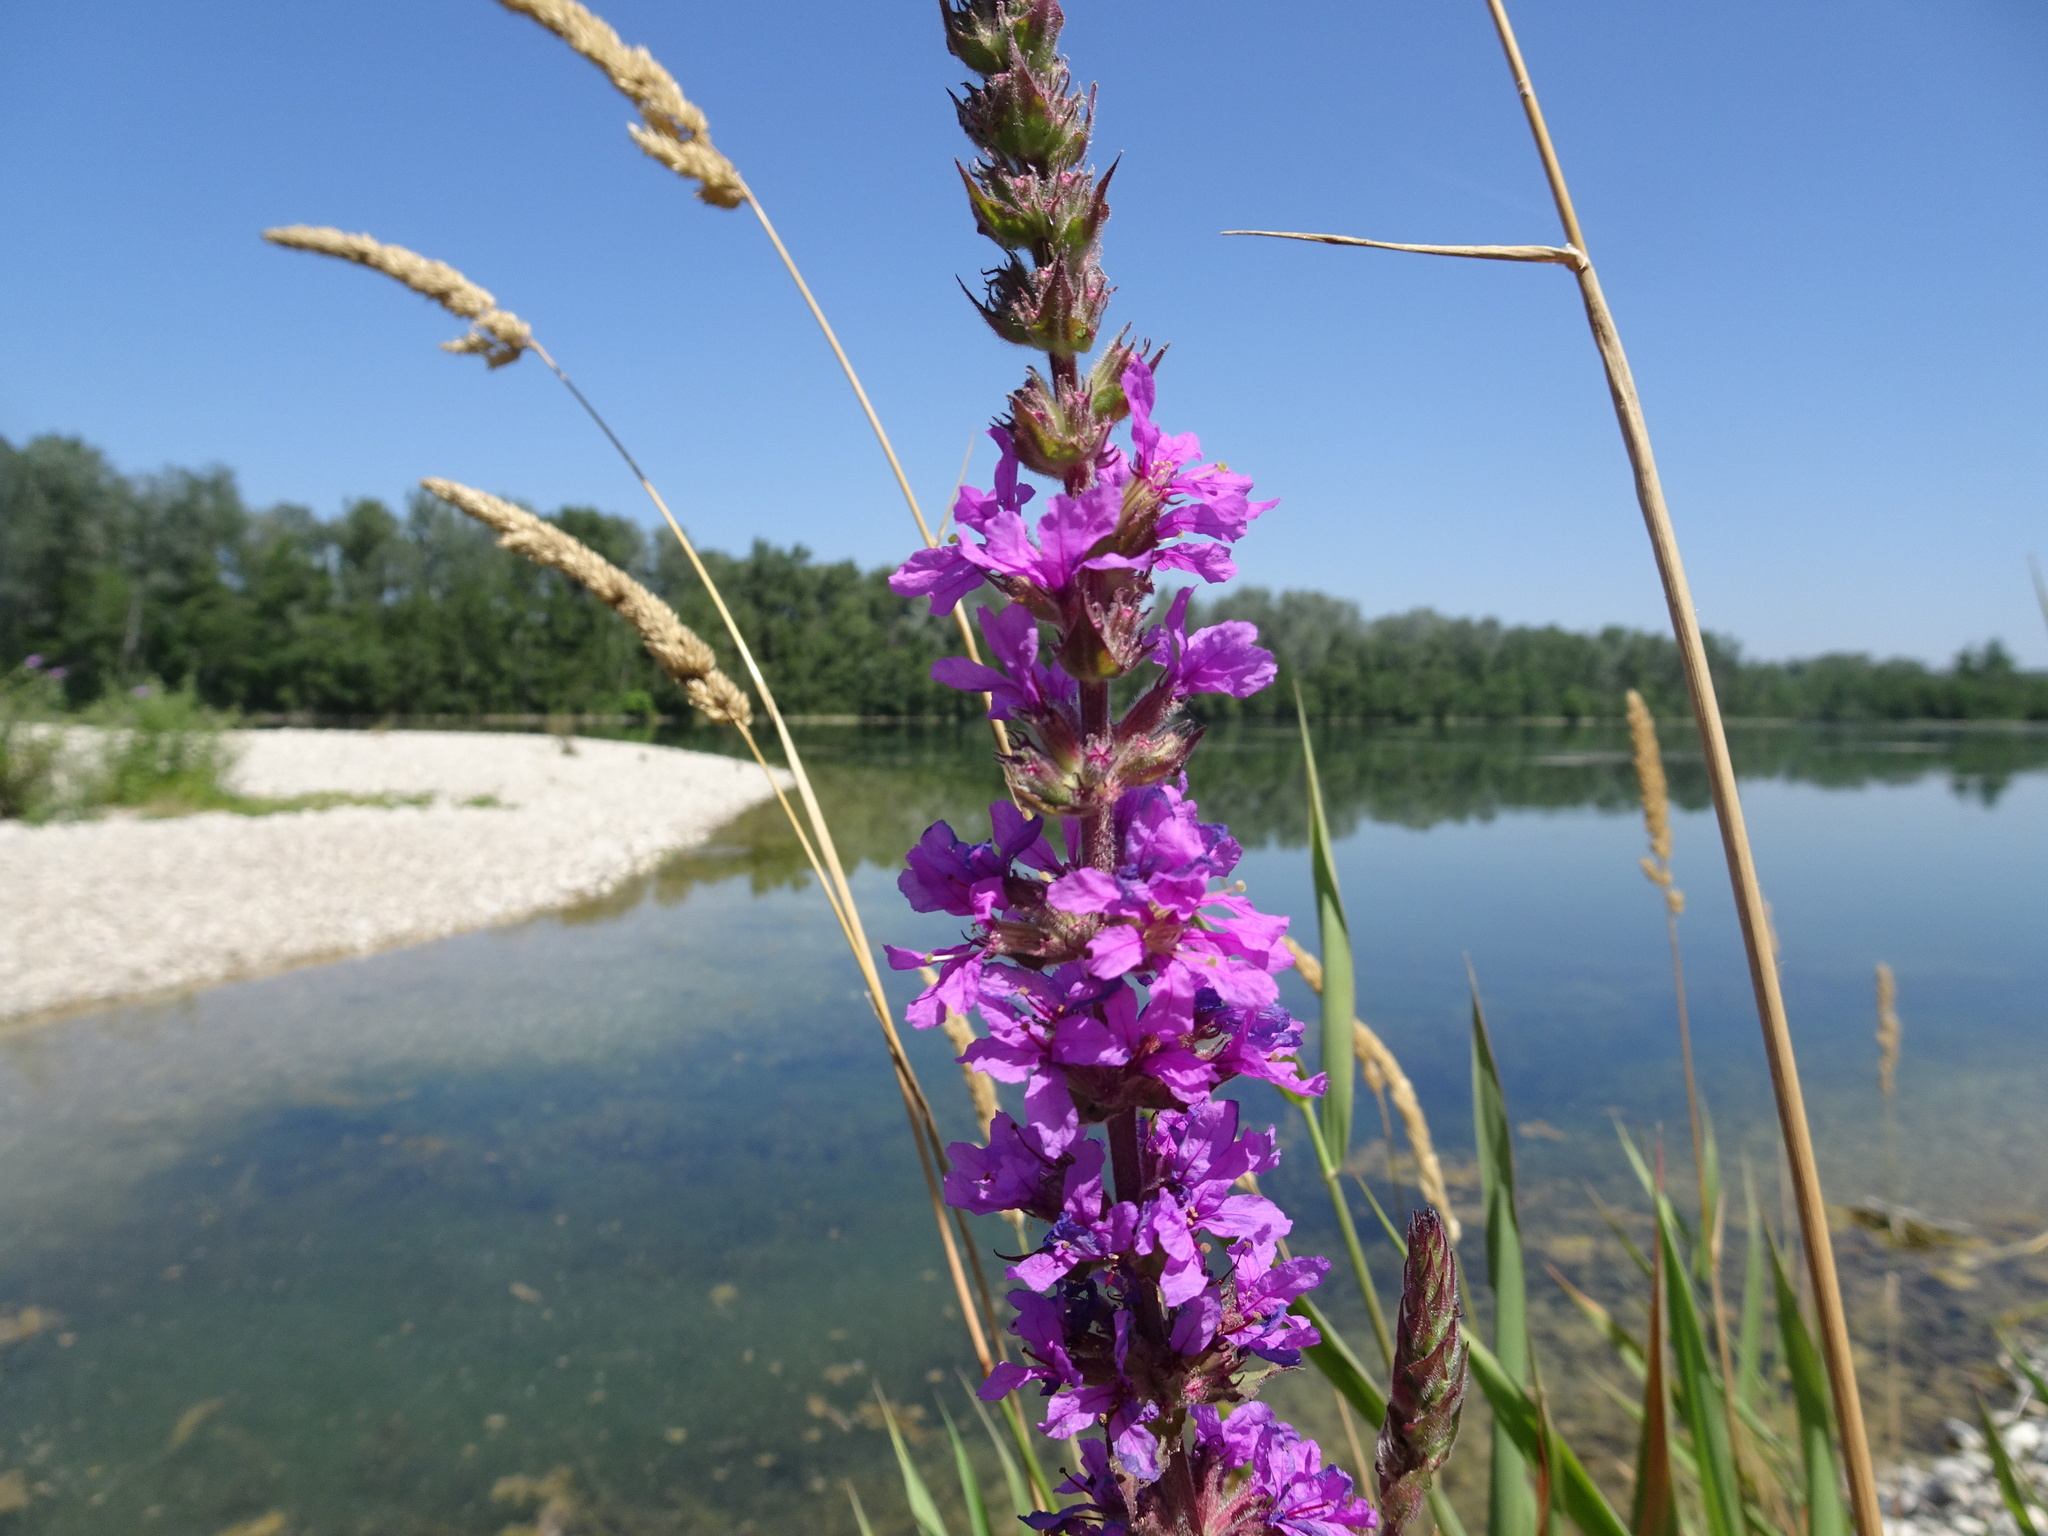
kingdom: Plantae
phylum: Tracheophyta
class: Magnoliopsida
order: Myrtales
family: Lythraceae
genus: Lythrum
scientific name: Lythrum salicaria
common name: Purple loosestrife
